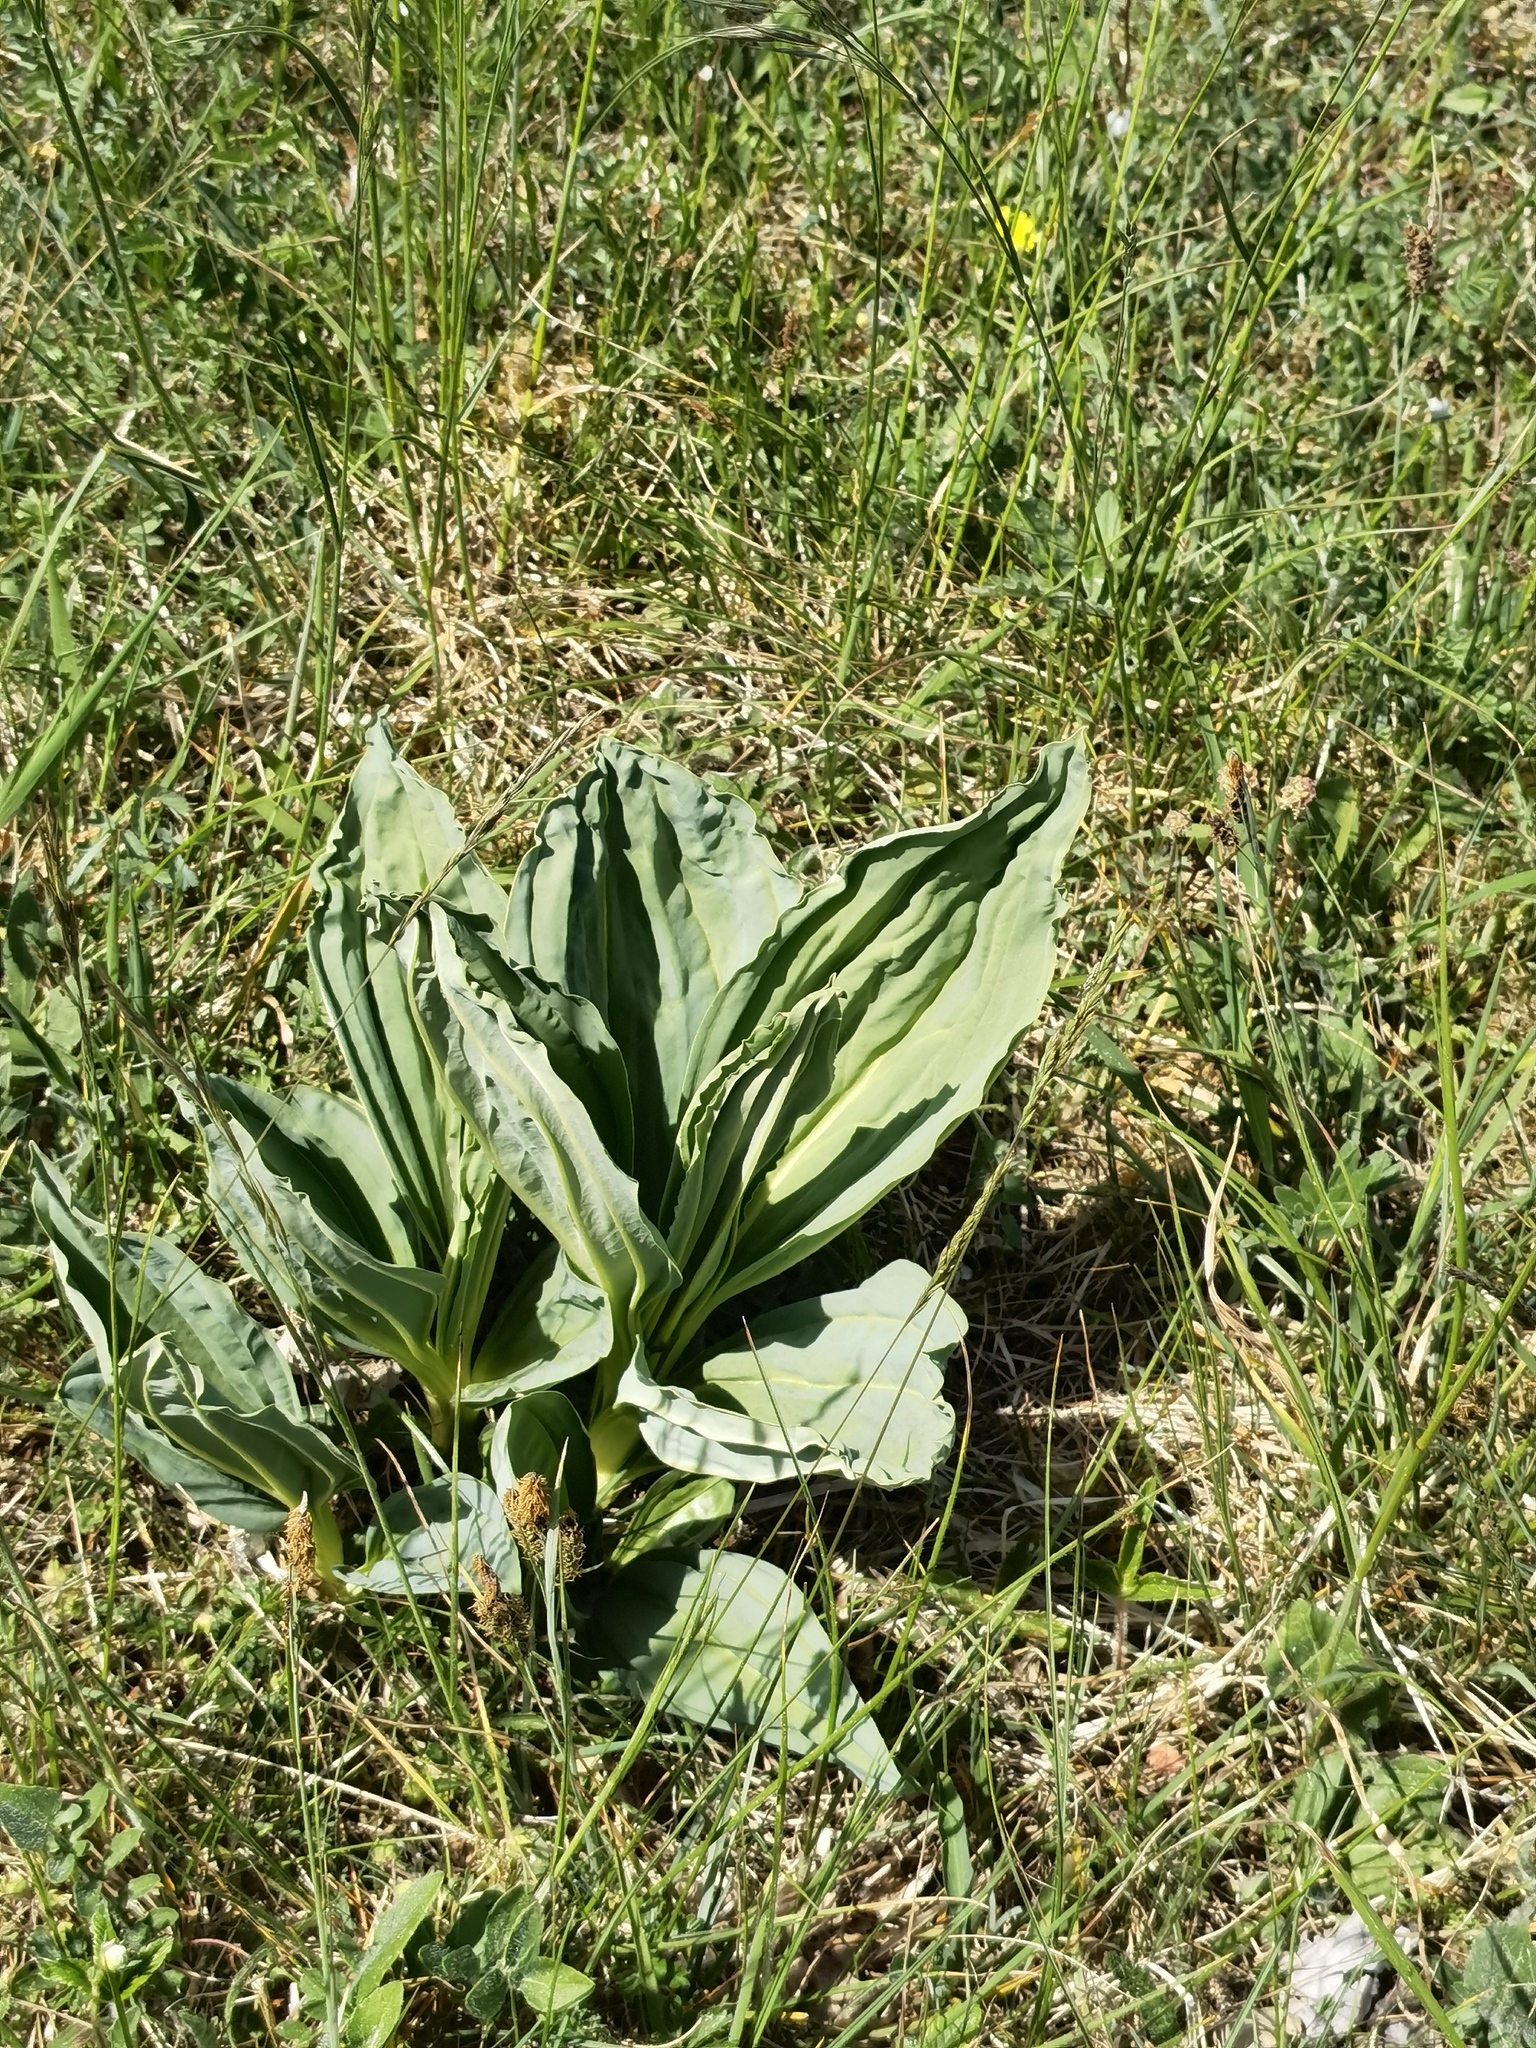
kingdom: Plantae
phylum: Tracheophyta
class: Magnoliopsida
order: Gentianales
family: Gentianaceae
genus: Gentiana
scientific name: Gentiana lutea
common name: Great yellow gentian
